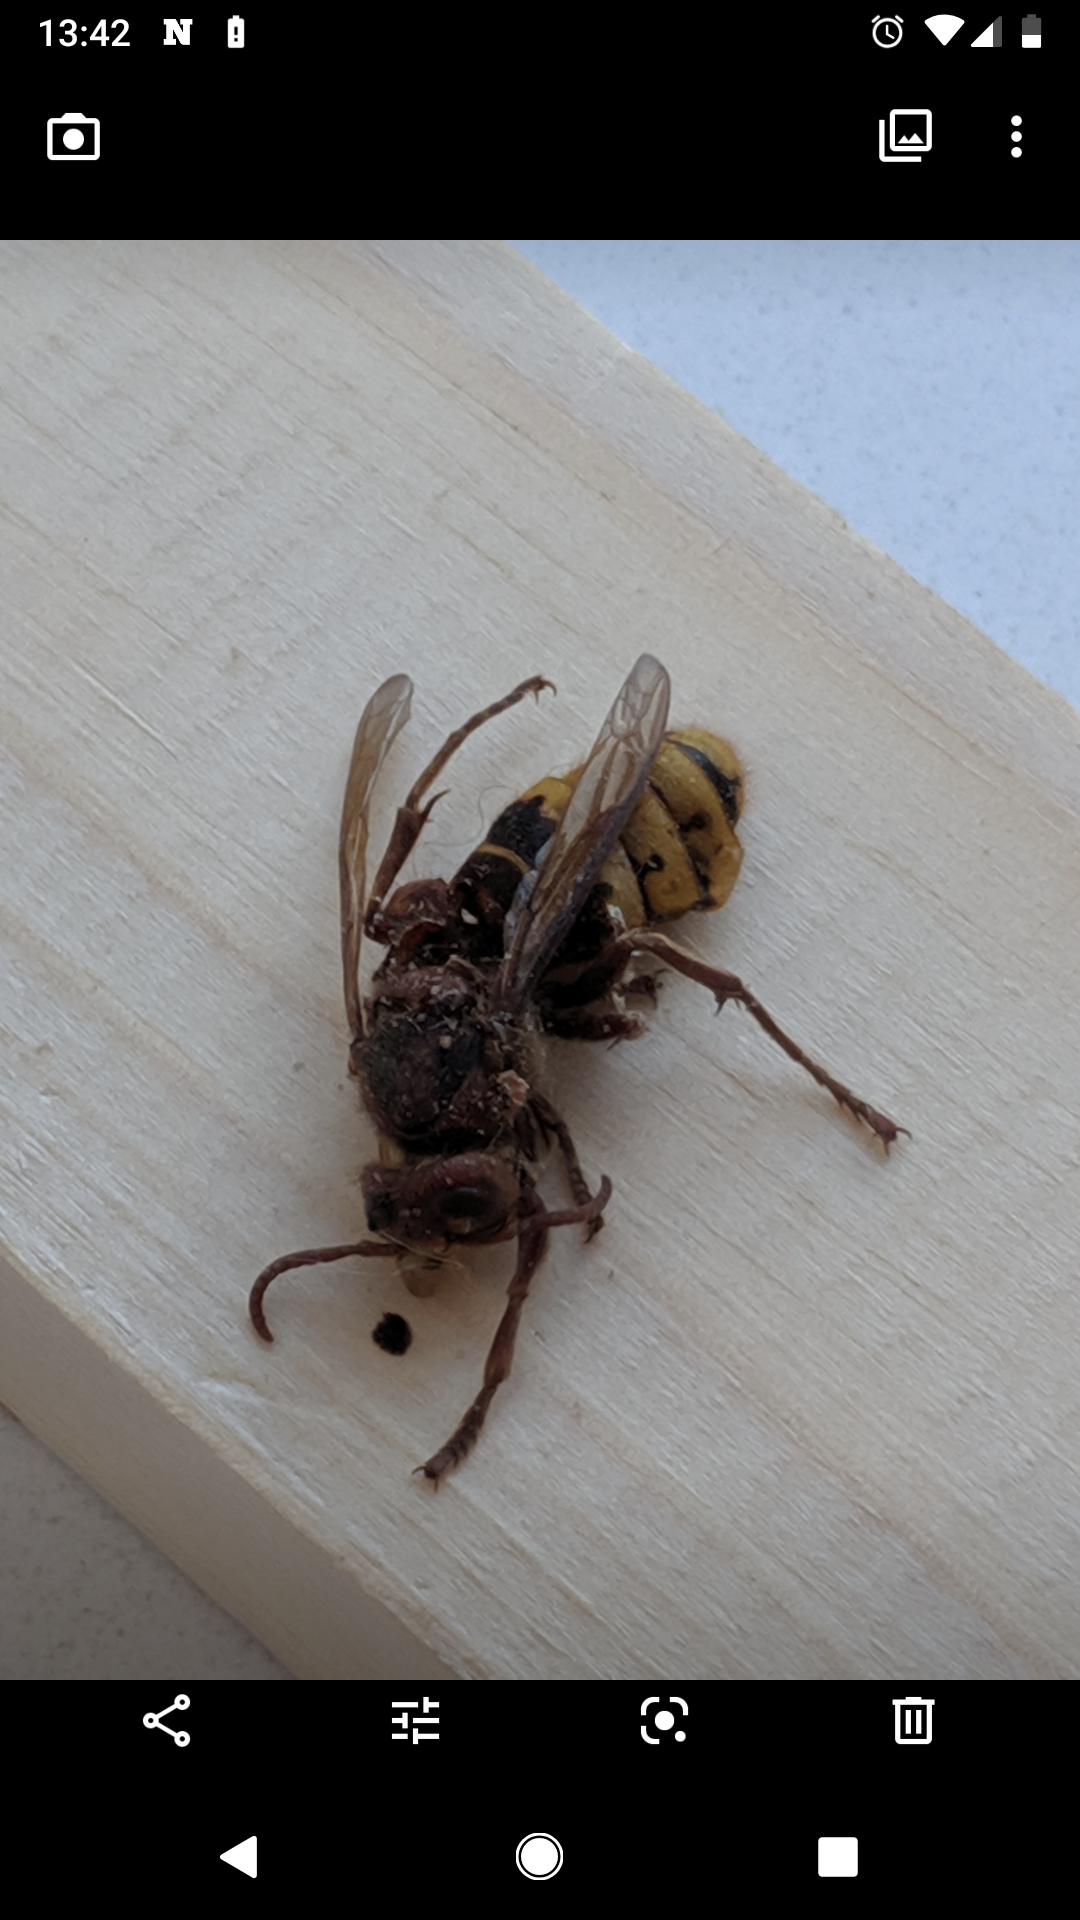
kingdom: Animalia
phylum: Arthropoda
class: Insecta
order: Hymenoptera
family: Vespidae
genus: Vespa
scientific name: Vespa crabro
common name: Hornet
